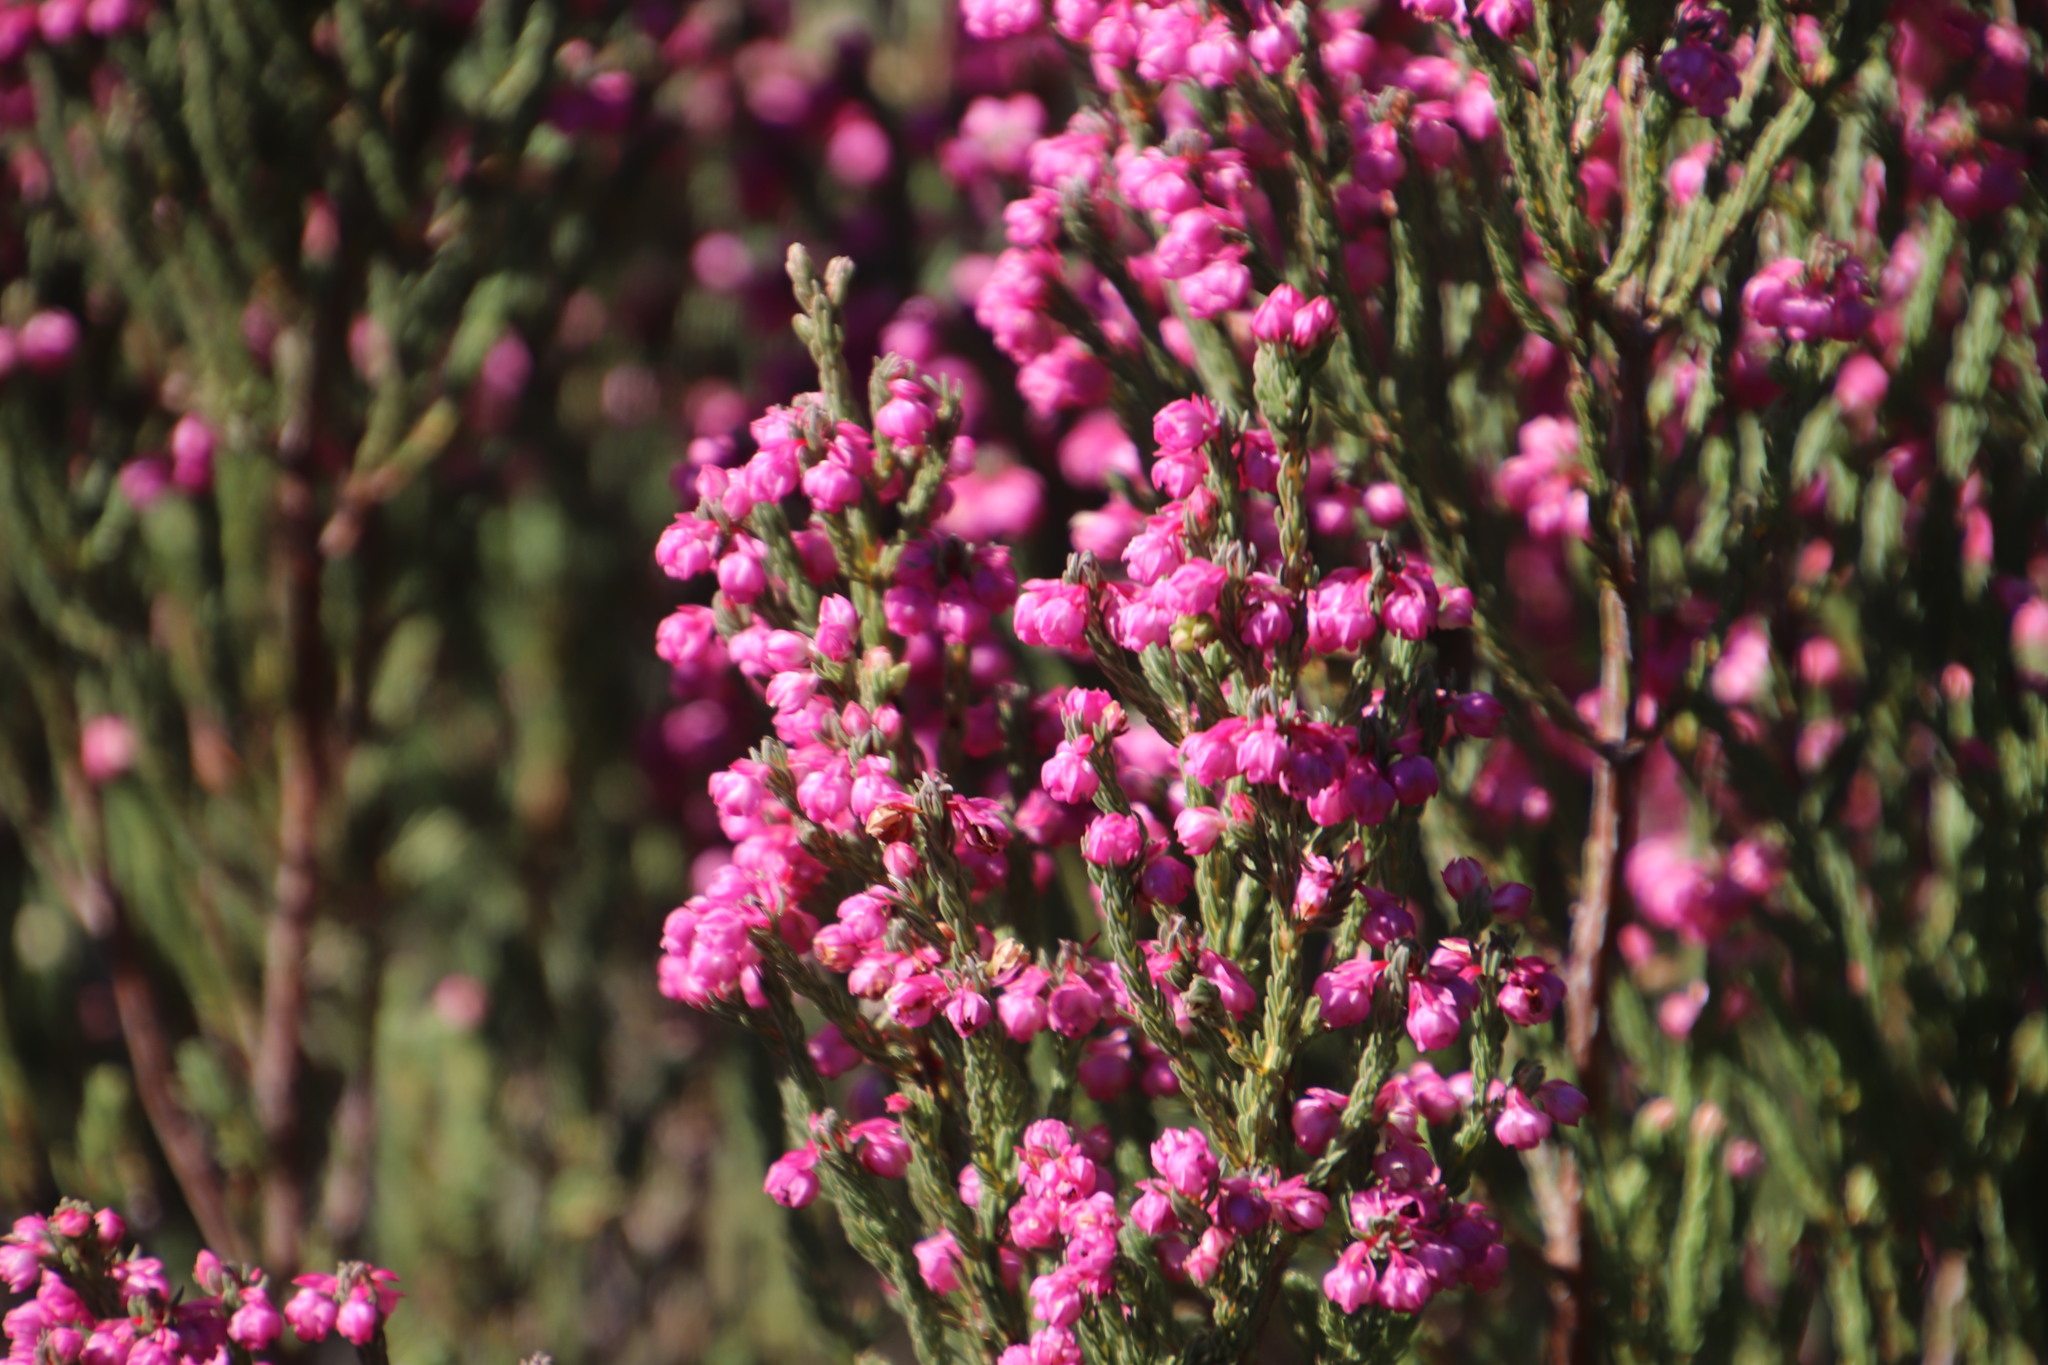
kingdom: Plantae
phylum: Tracheophyta
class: Magnoliopsida
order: Ericales
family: Ericaceae
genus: Erica
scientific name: Erica baccans
